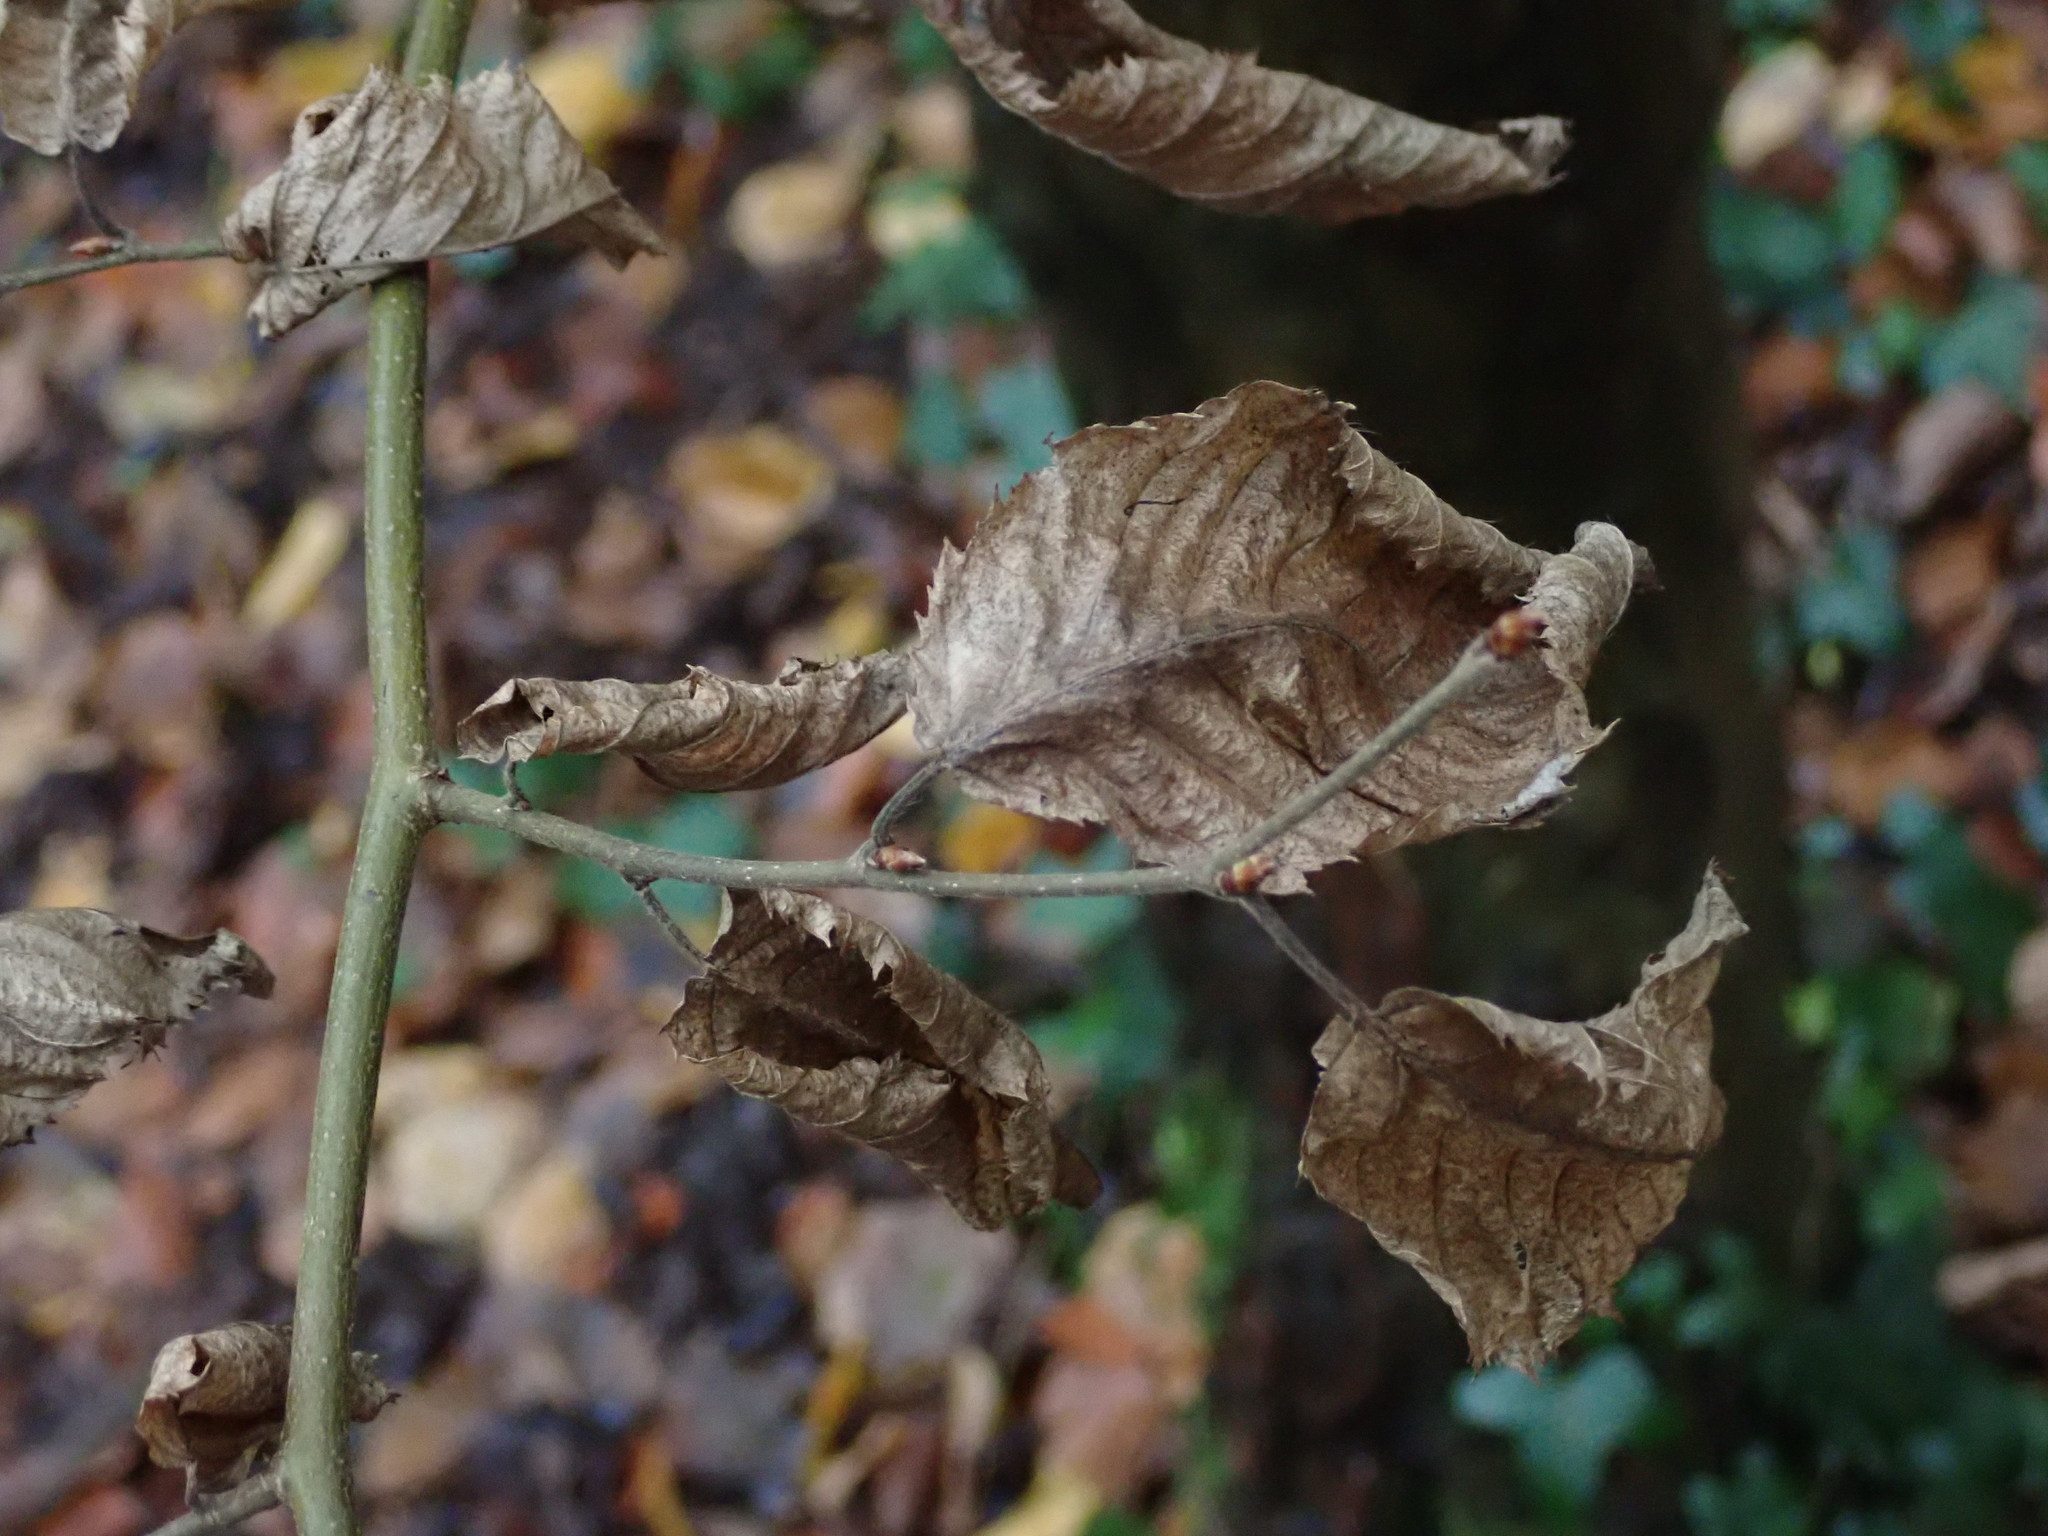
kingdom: Plantae
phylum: Tracheophyta
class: Magnoliopsida
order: Fagales
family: Betulaceae
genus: Carpinus
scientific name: Carpinus betulus
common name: Hornbeam
